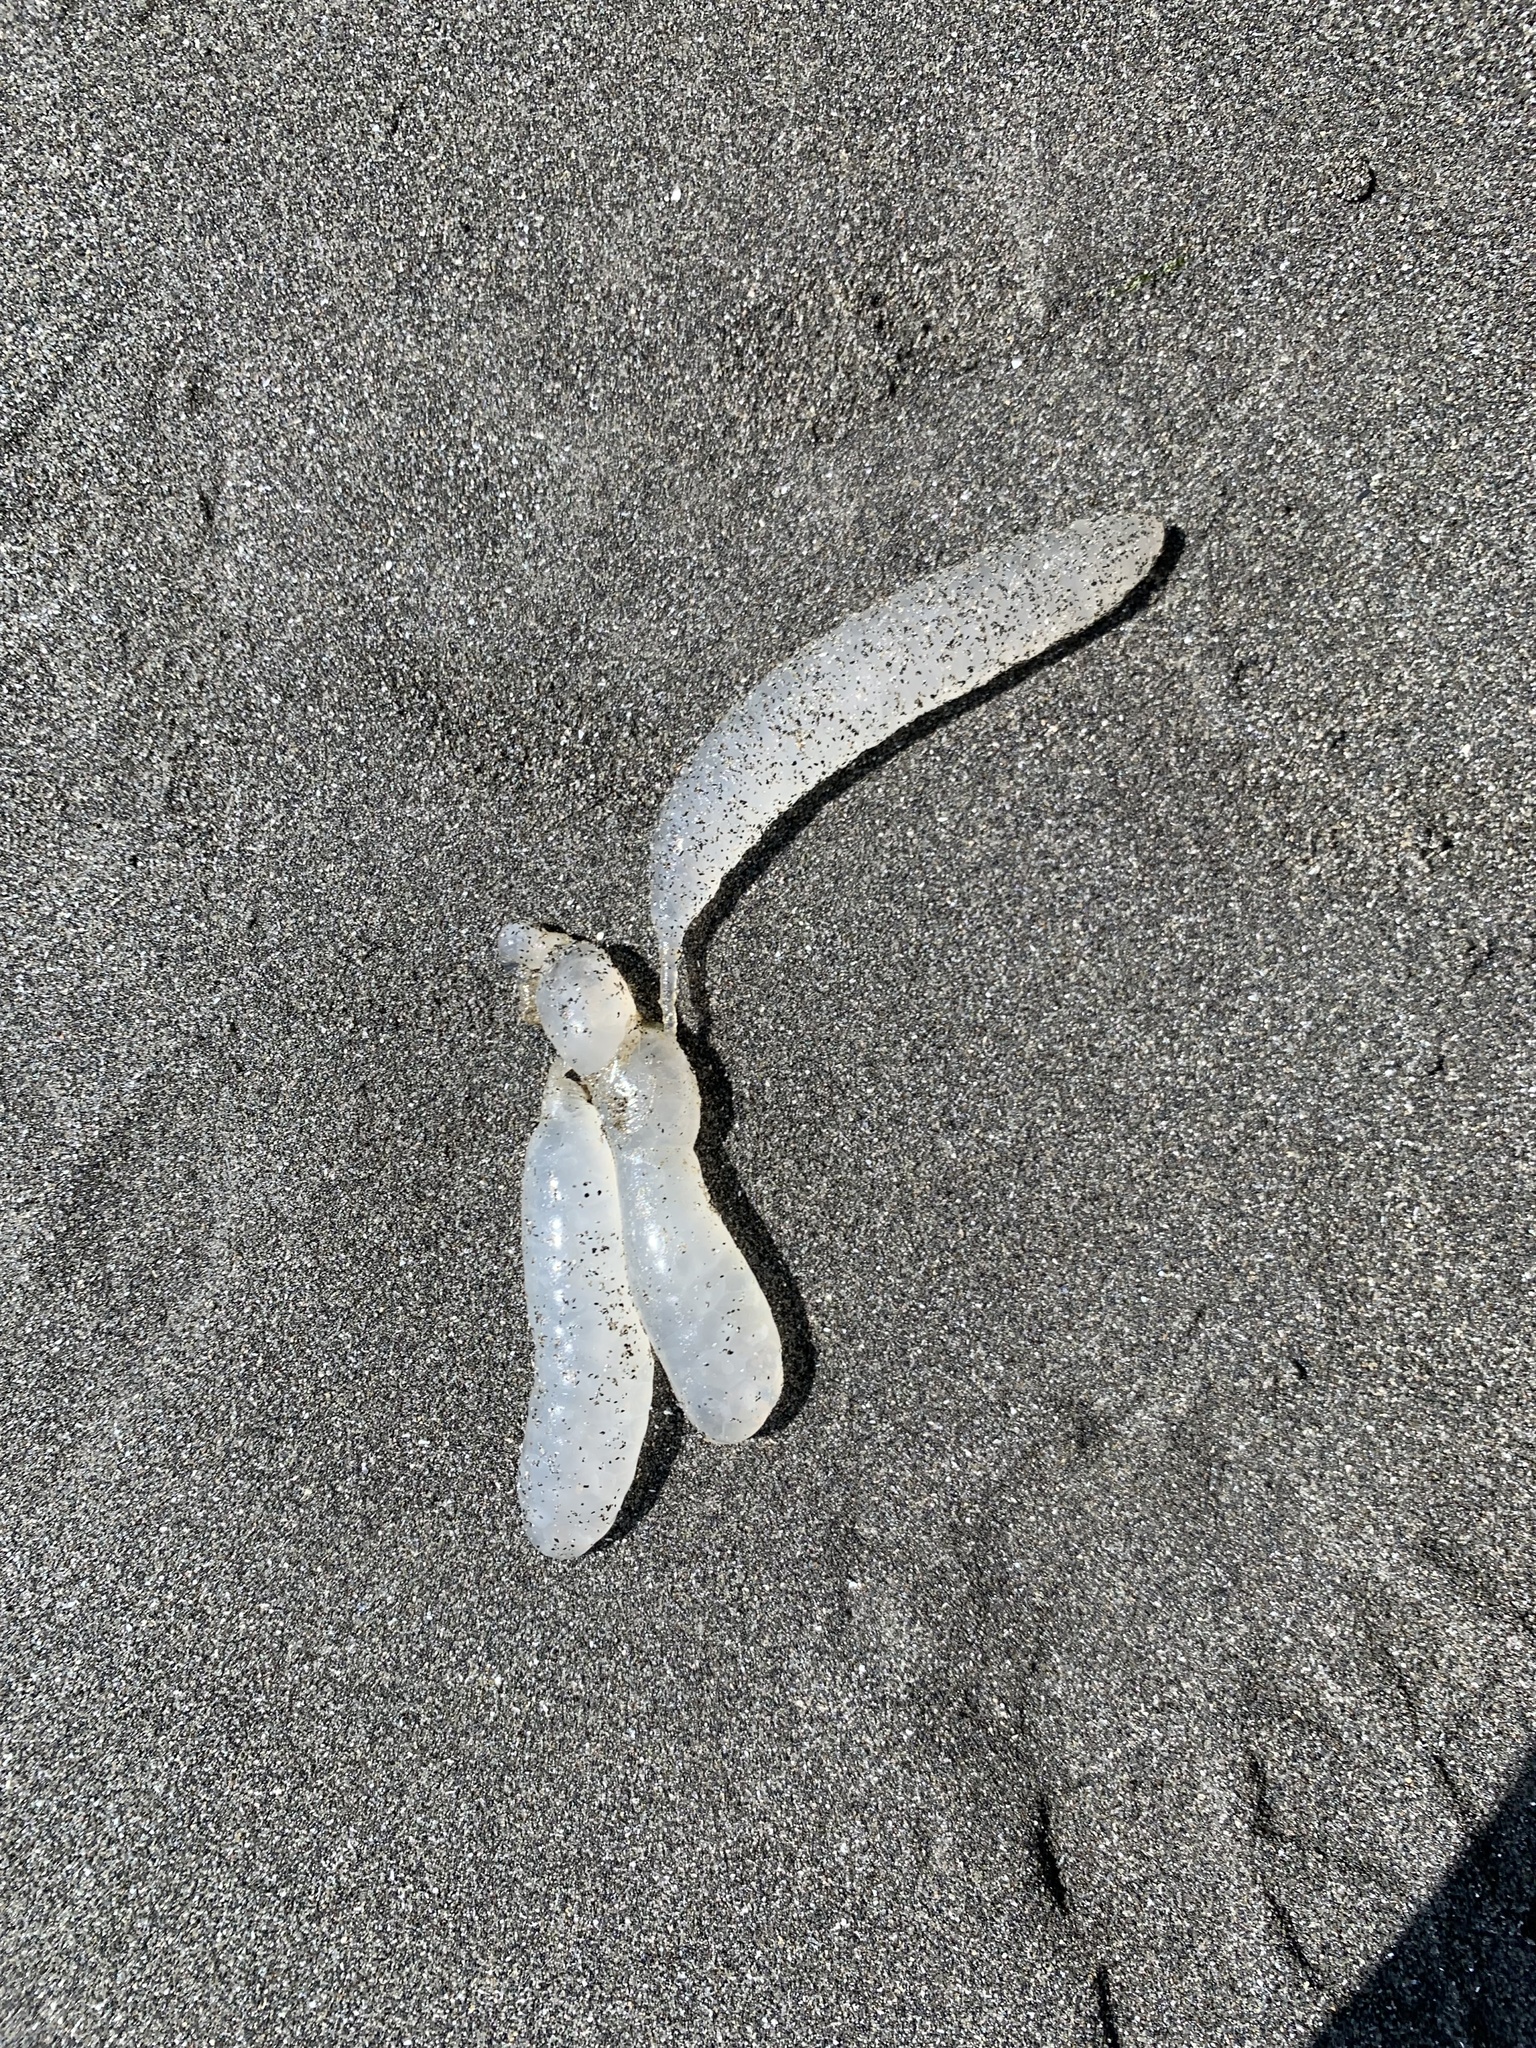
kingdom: Animalia
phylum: Mollusca
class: Cephalopoda
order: Myopsida
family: Loliginidae
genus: Doryteuthis
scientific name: Doryteuthis opalescens
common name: Opalescent inshore squid
